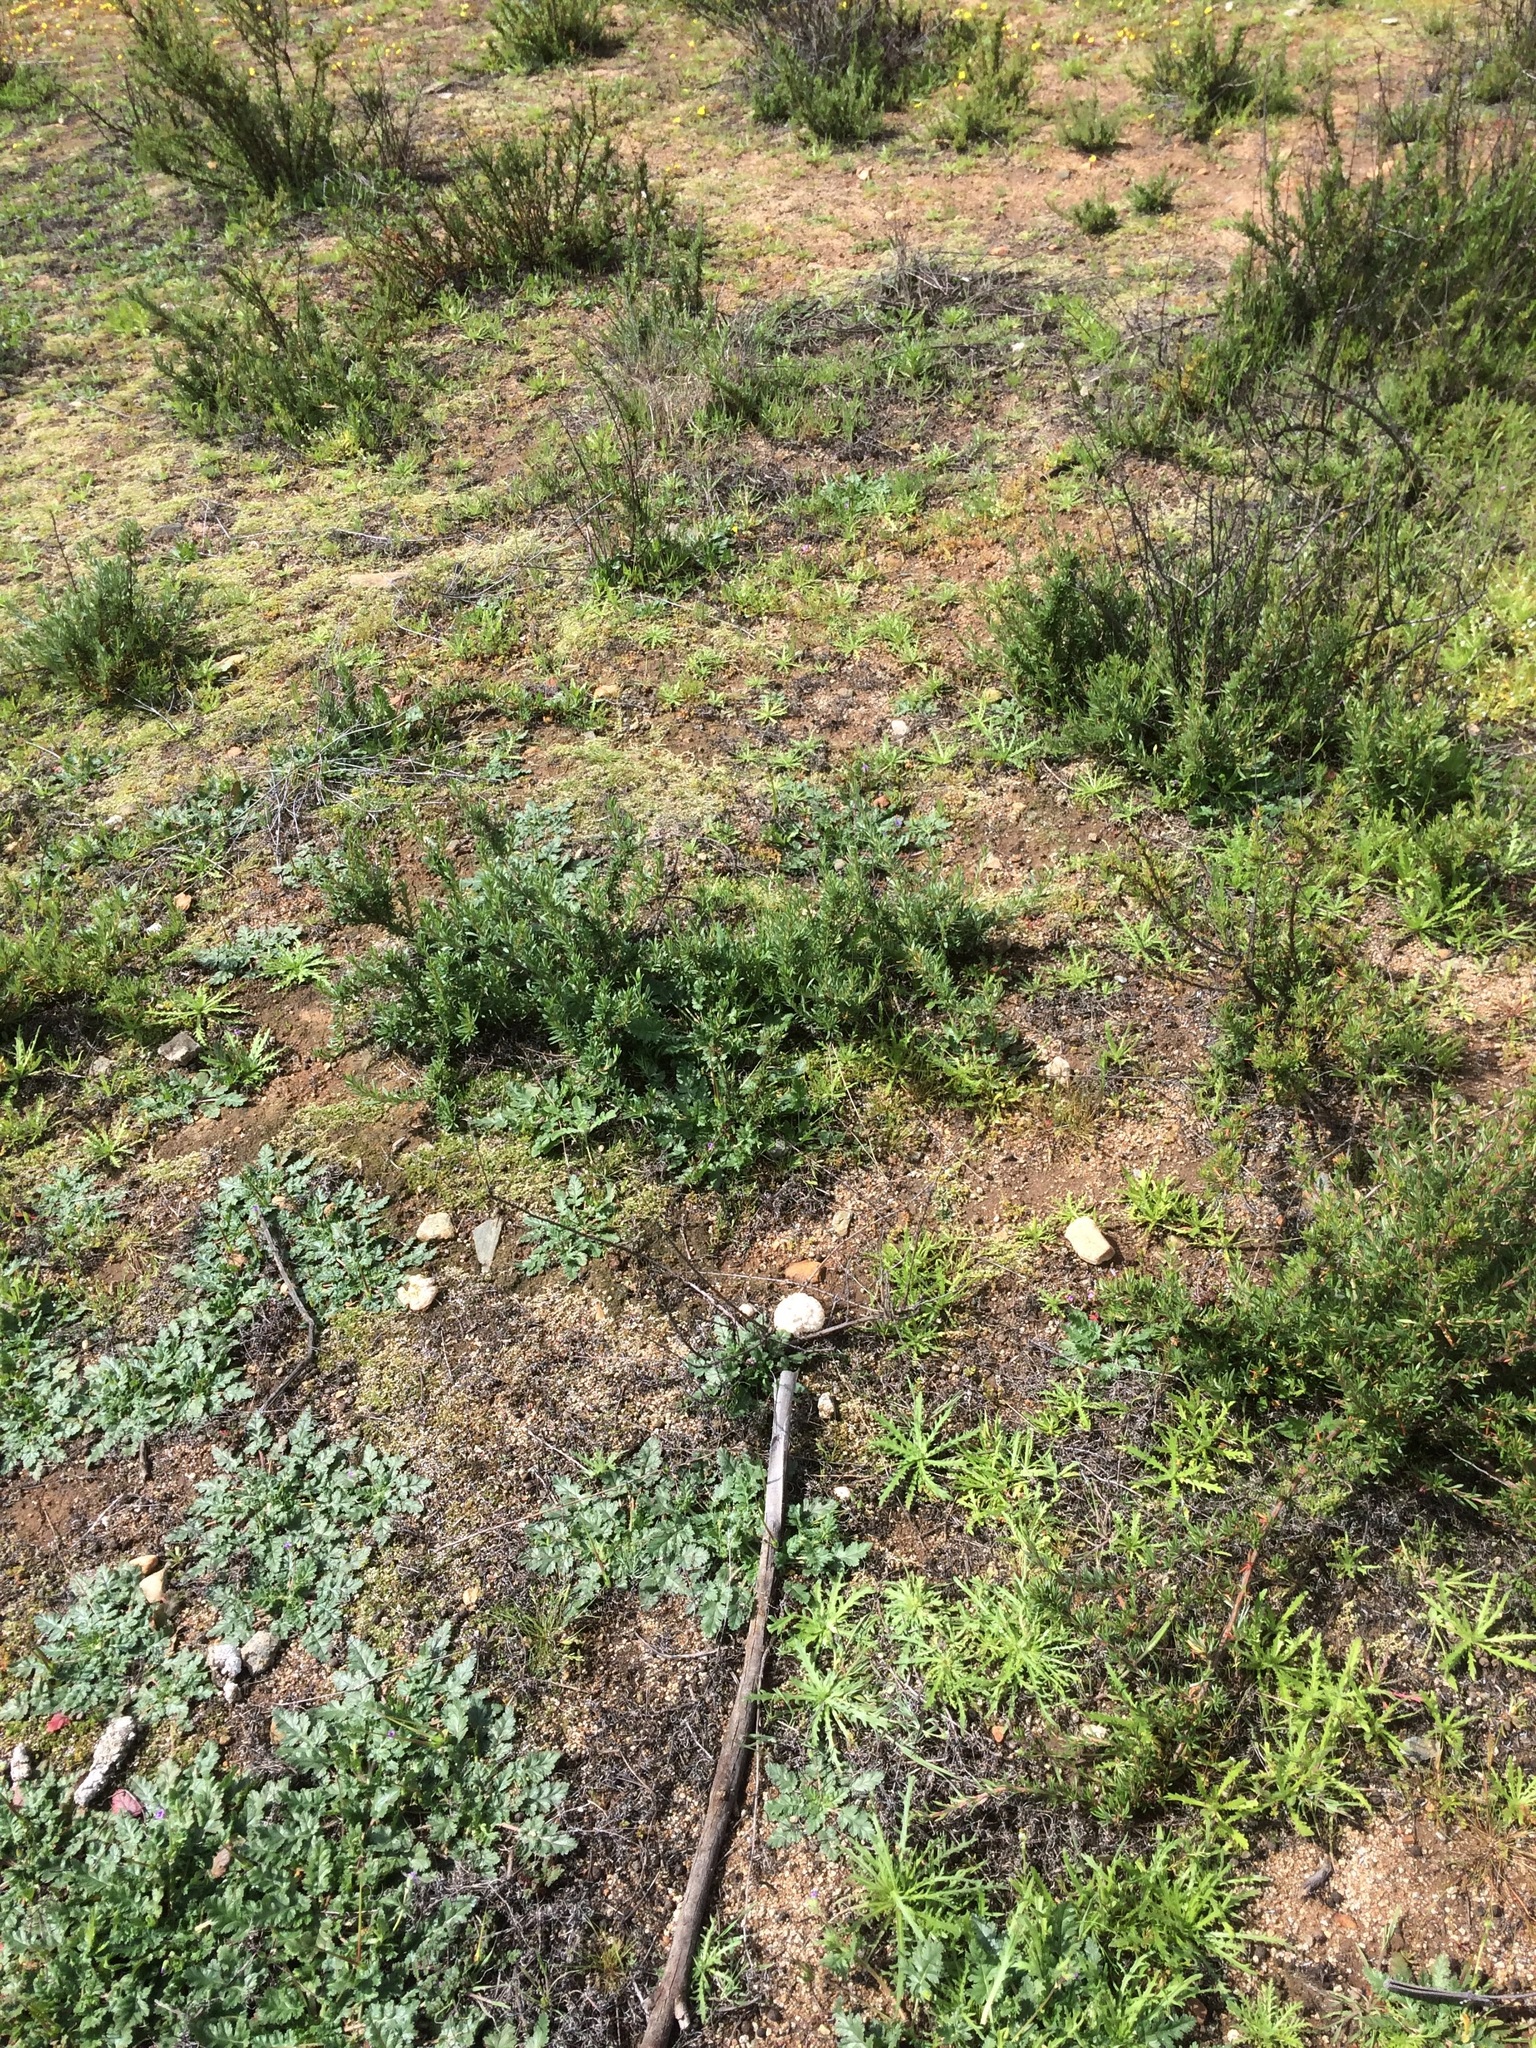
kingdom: Fungi
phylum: Basidiomycota
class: Agaricomycetes
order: Agaricales
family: Amanitaceae
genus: Amanita
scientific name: Amanita magniverrucata
